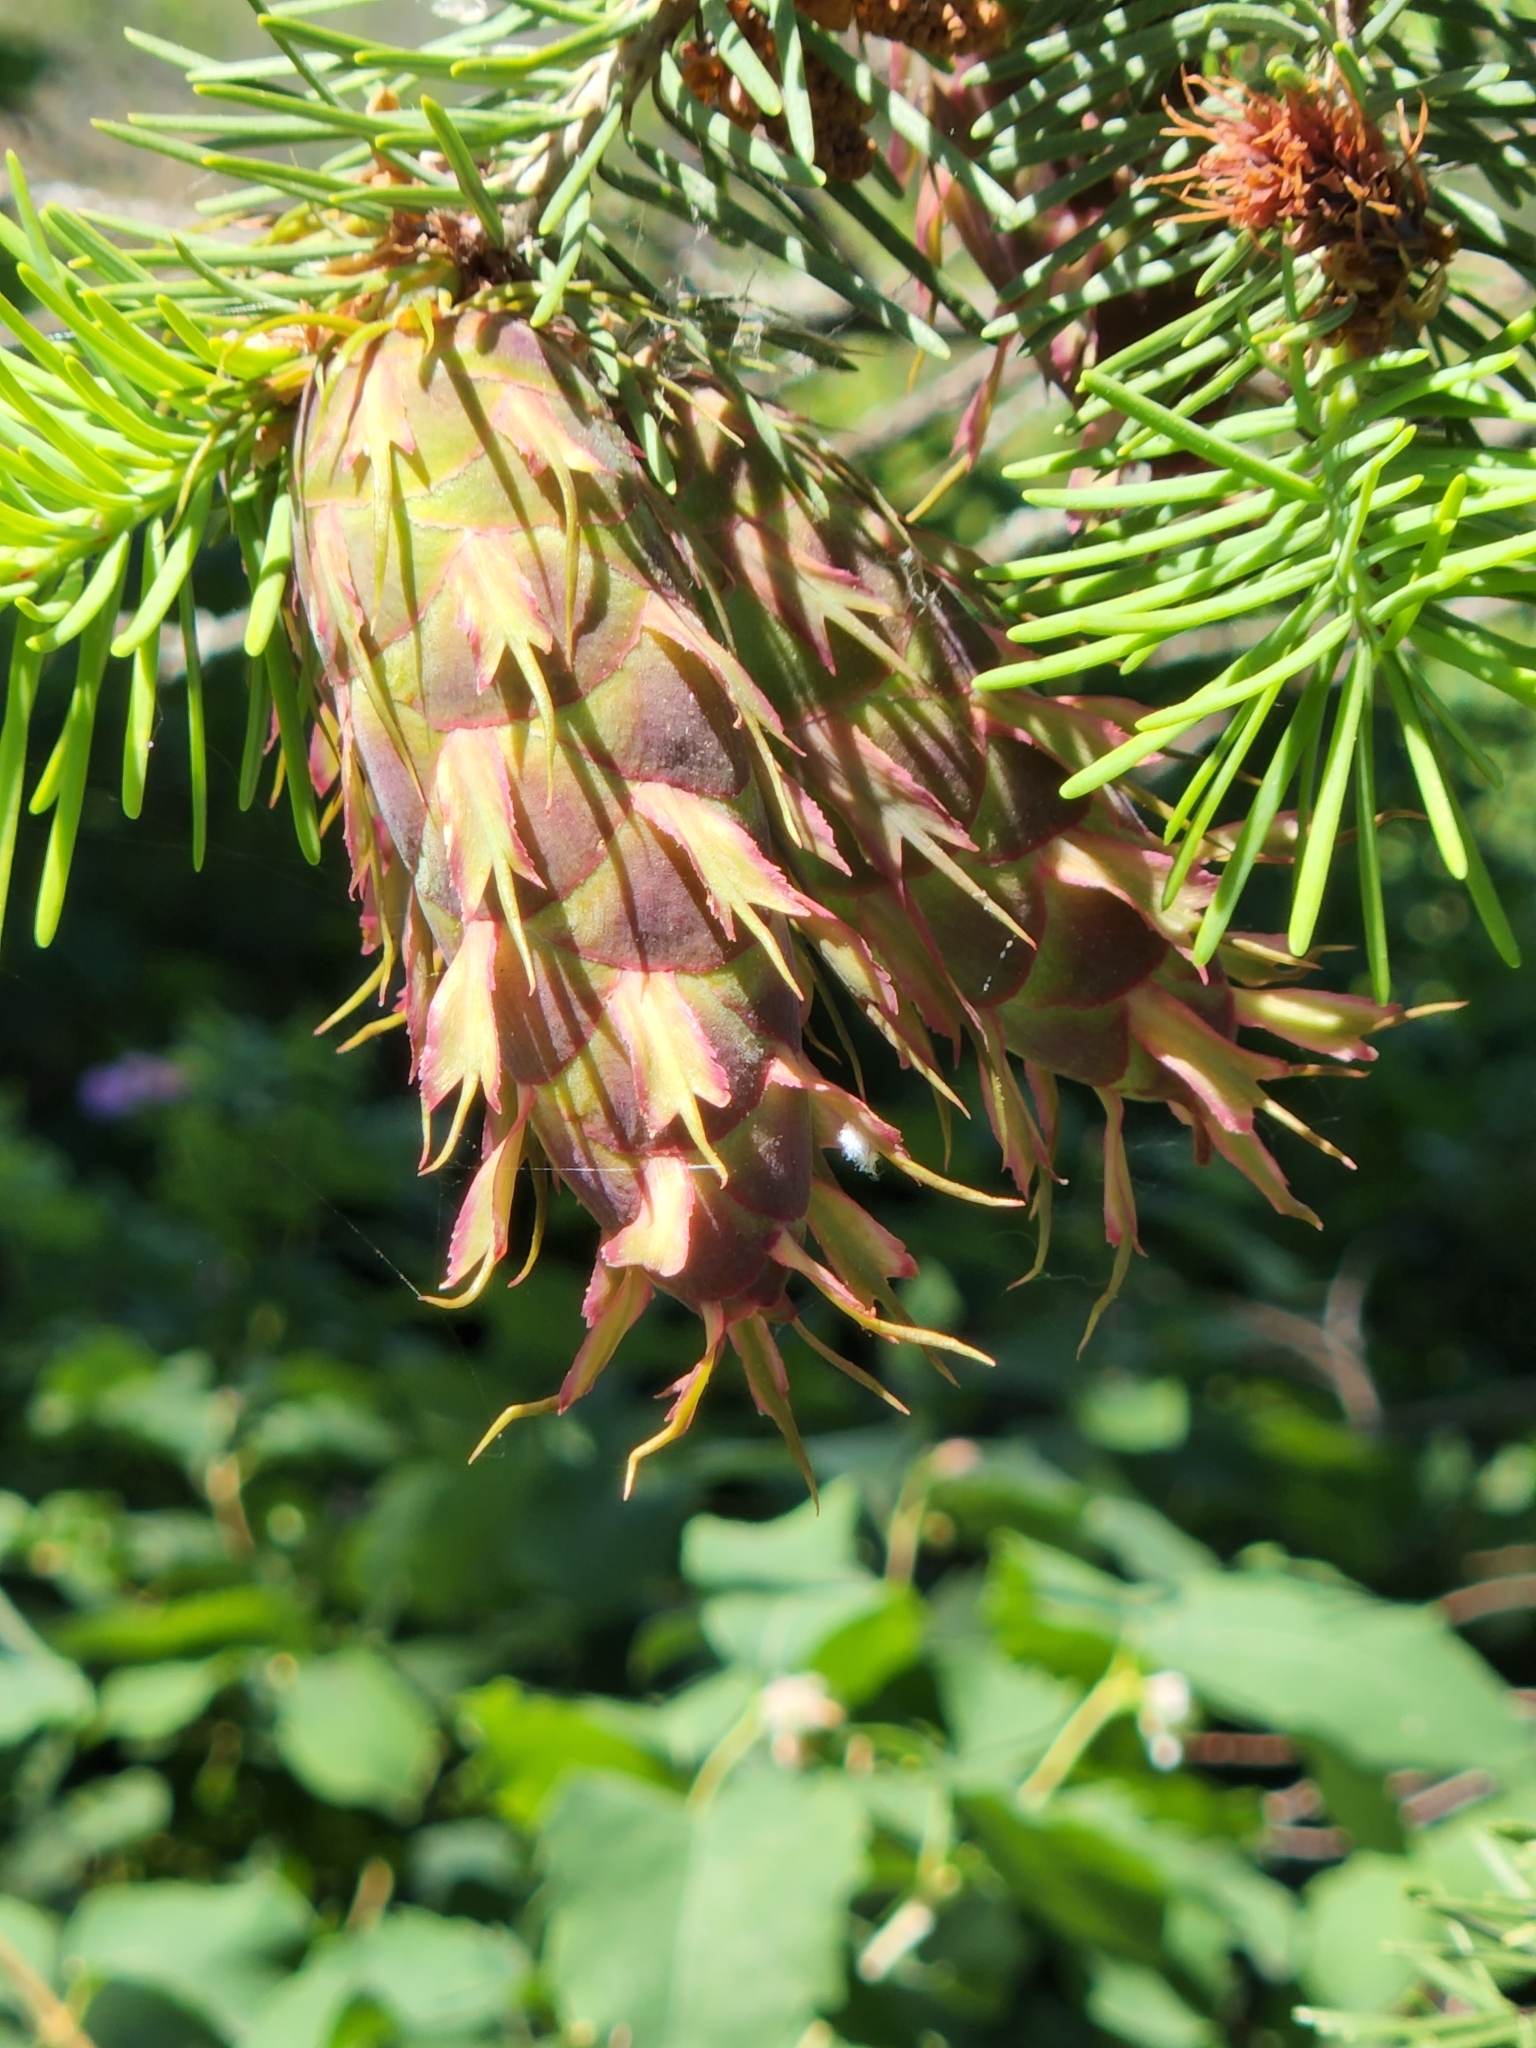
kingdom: Plantae
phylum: Tracheophyta
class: Pinopsida
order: Pinales
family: Pinaceae
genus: Pseudotsuga
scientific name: Pseudotsuga menziesii
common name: Douglas fir
